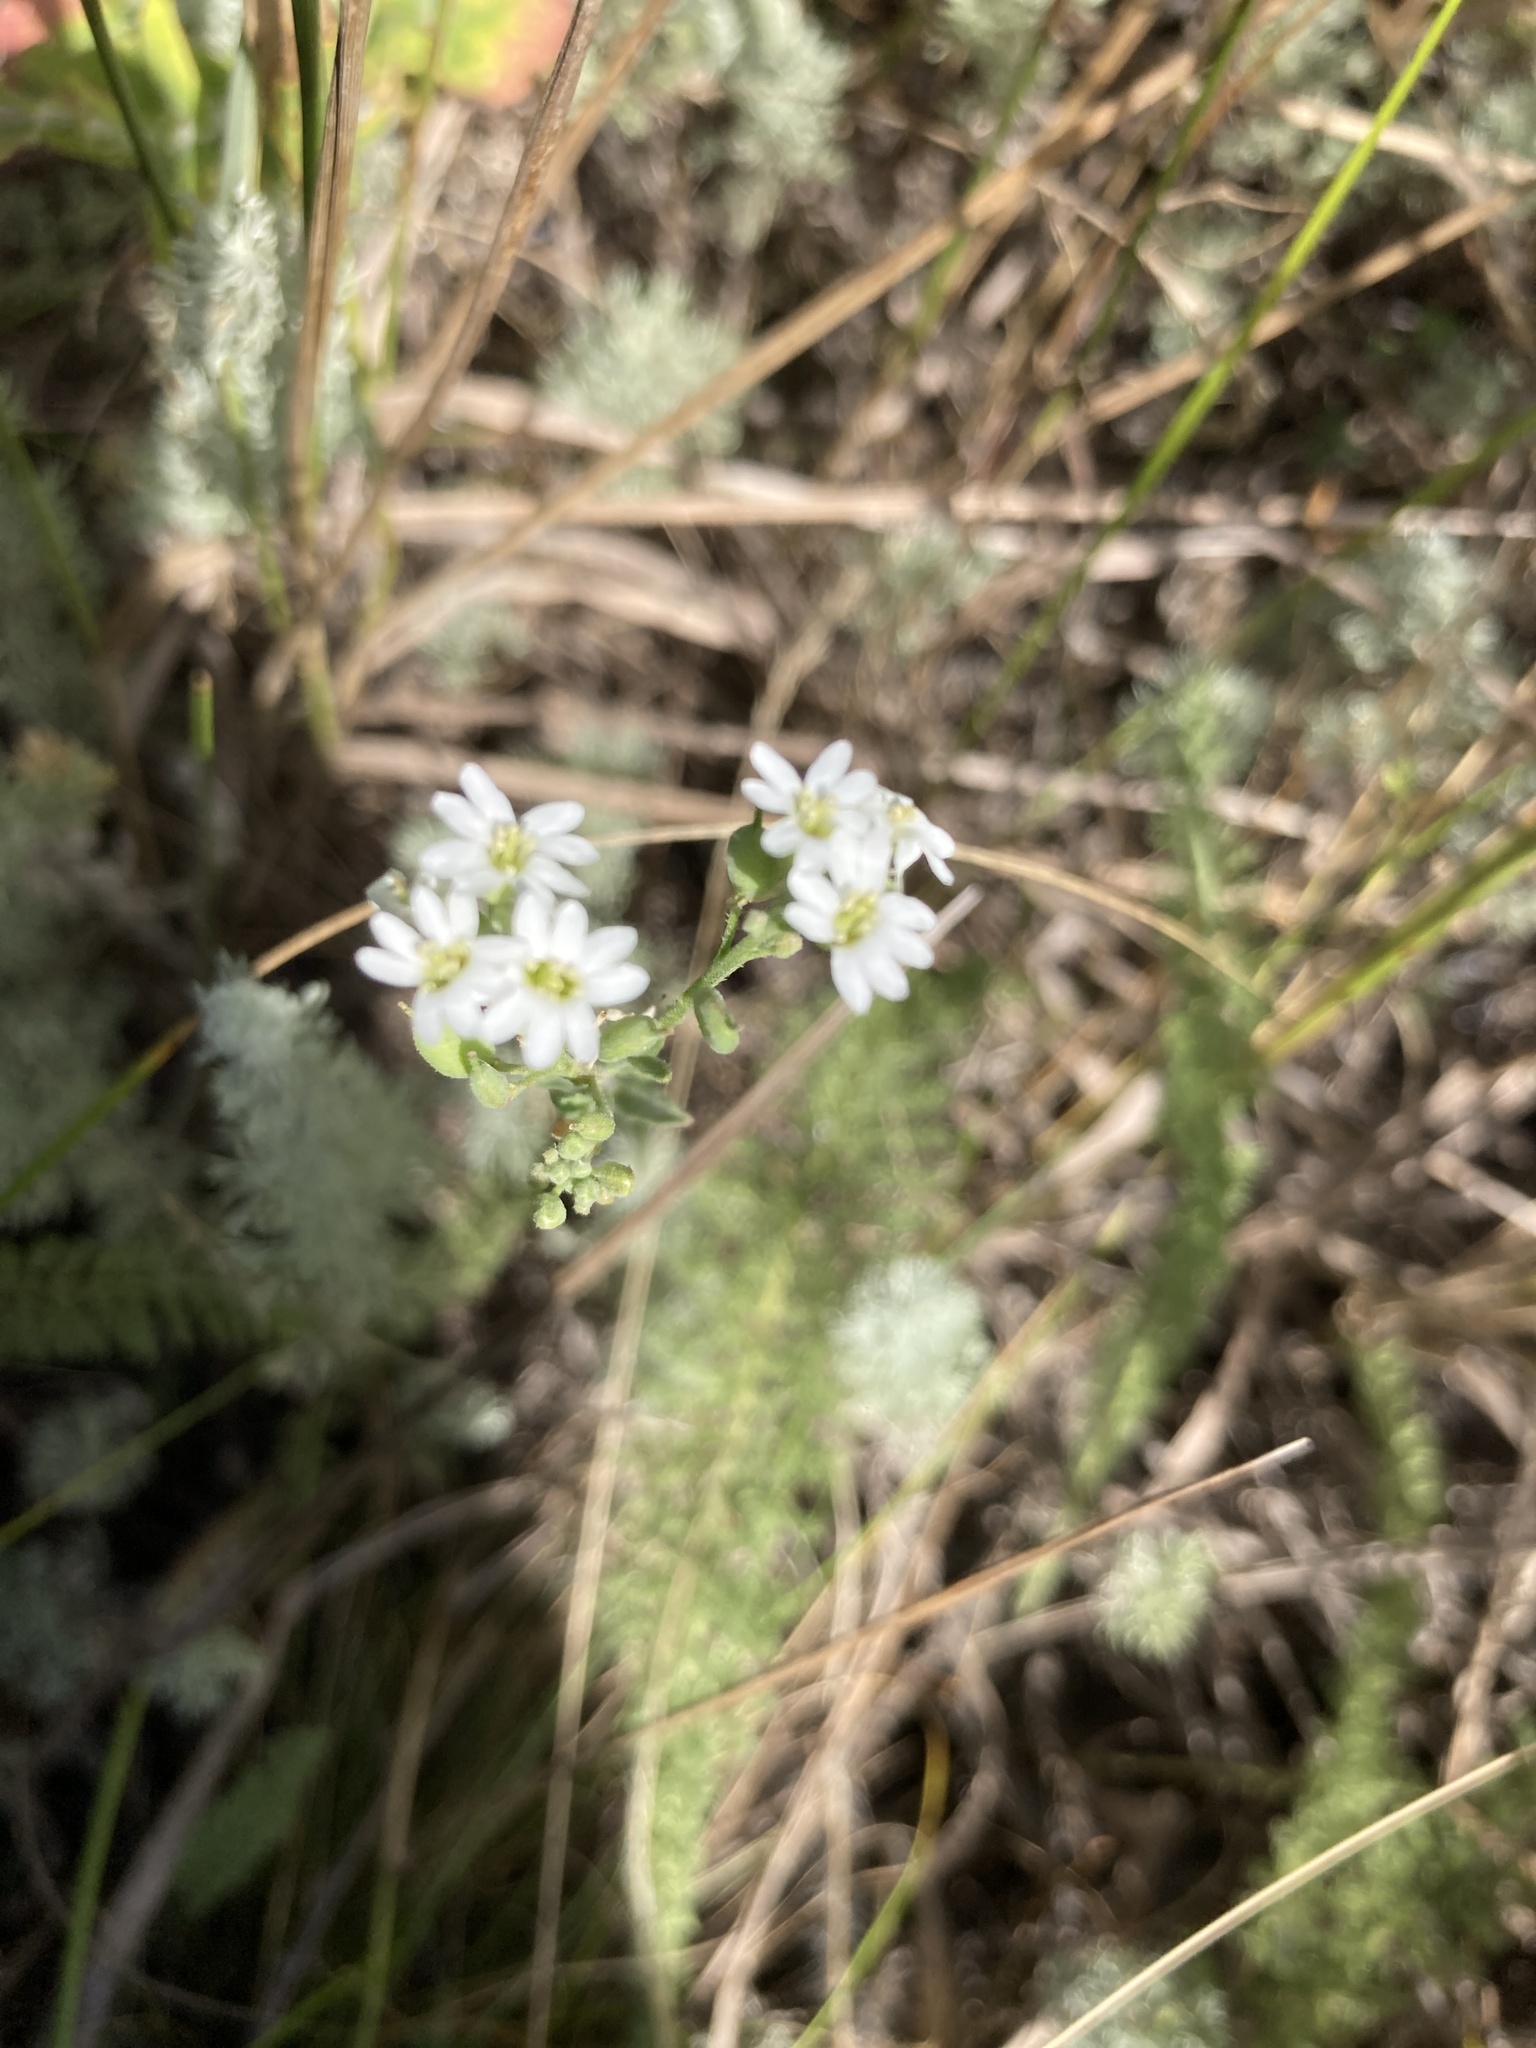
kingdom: Plantae
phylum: Tracheophyta
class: Magnoliopsida
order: Brassicales
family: Brassicaceae
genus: Berteroa
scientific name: Berteroa incana
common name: Hoary alison
